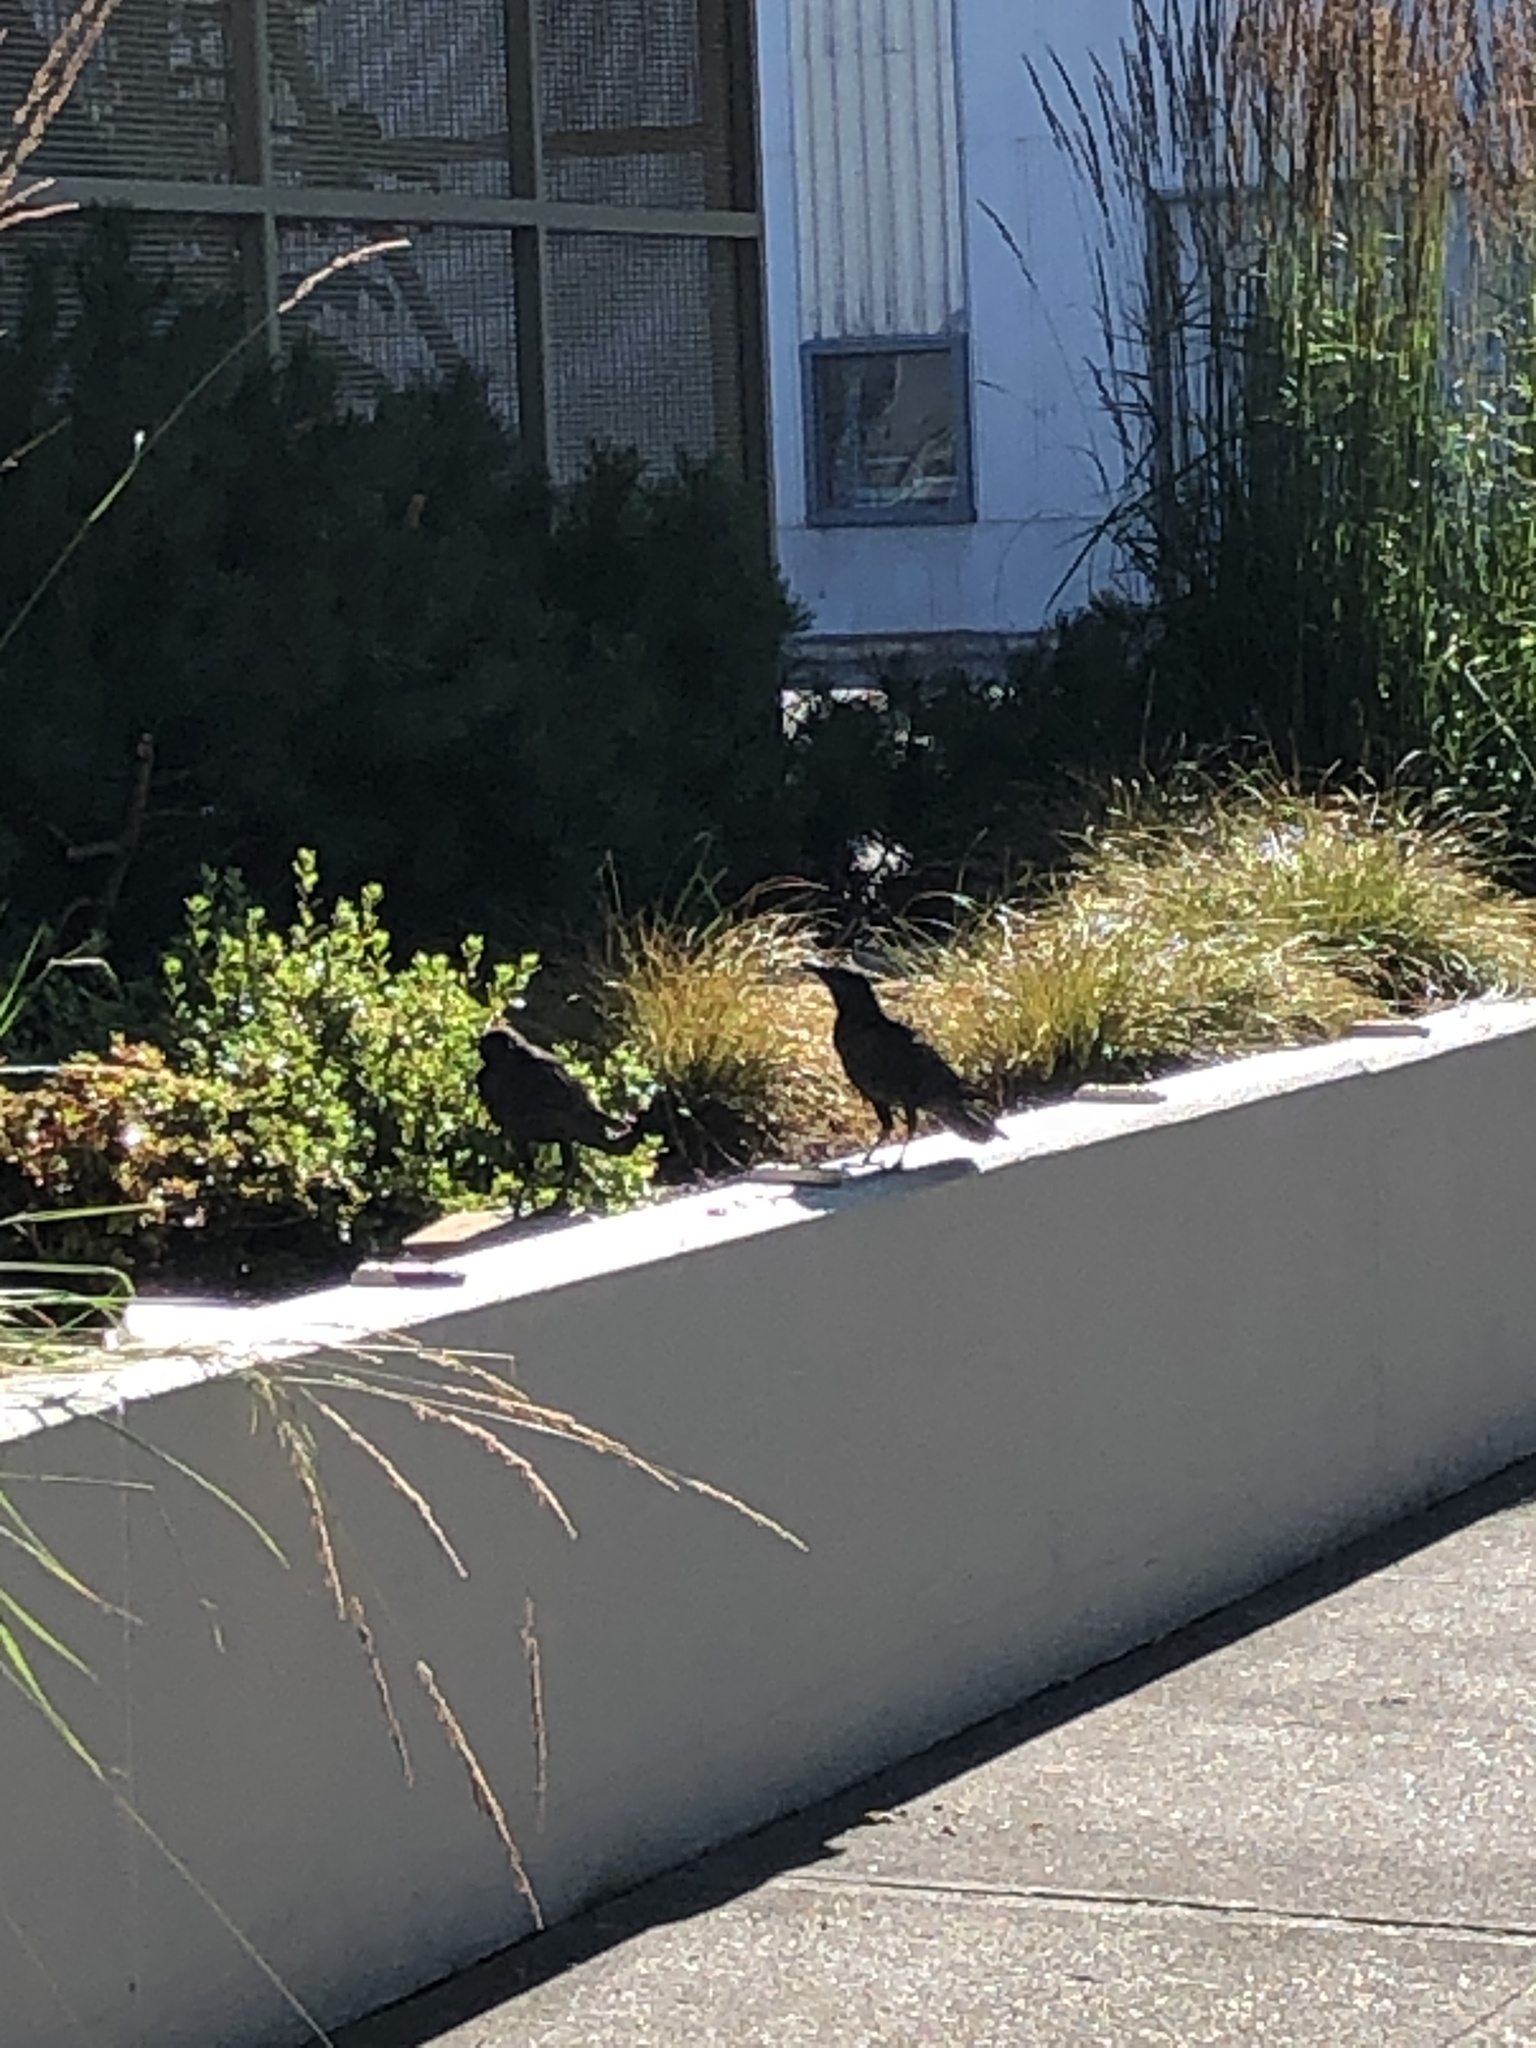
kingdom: Animalia
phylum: Chordata
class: Aves
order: Passeriformes
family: Corvidae
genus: Corvus
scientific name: Corvus brachyrhynchos
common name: American crow
